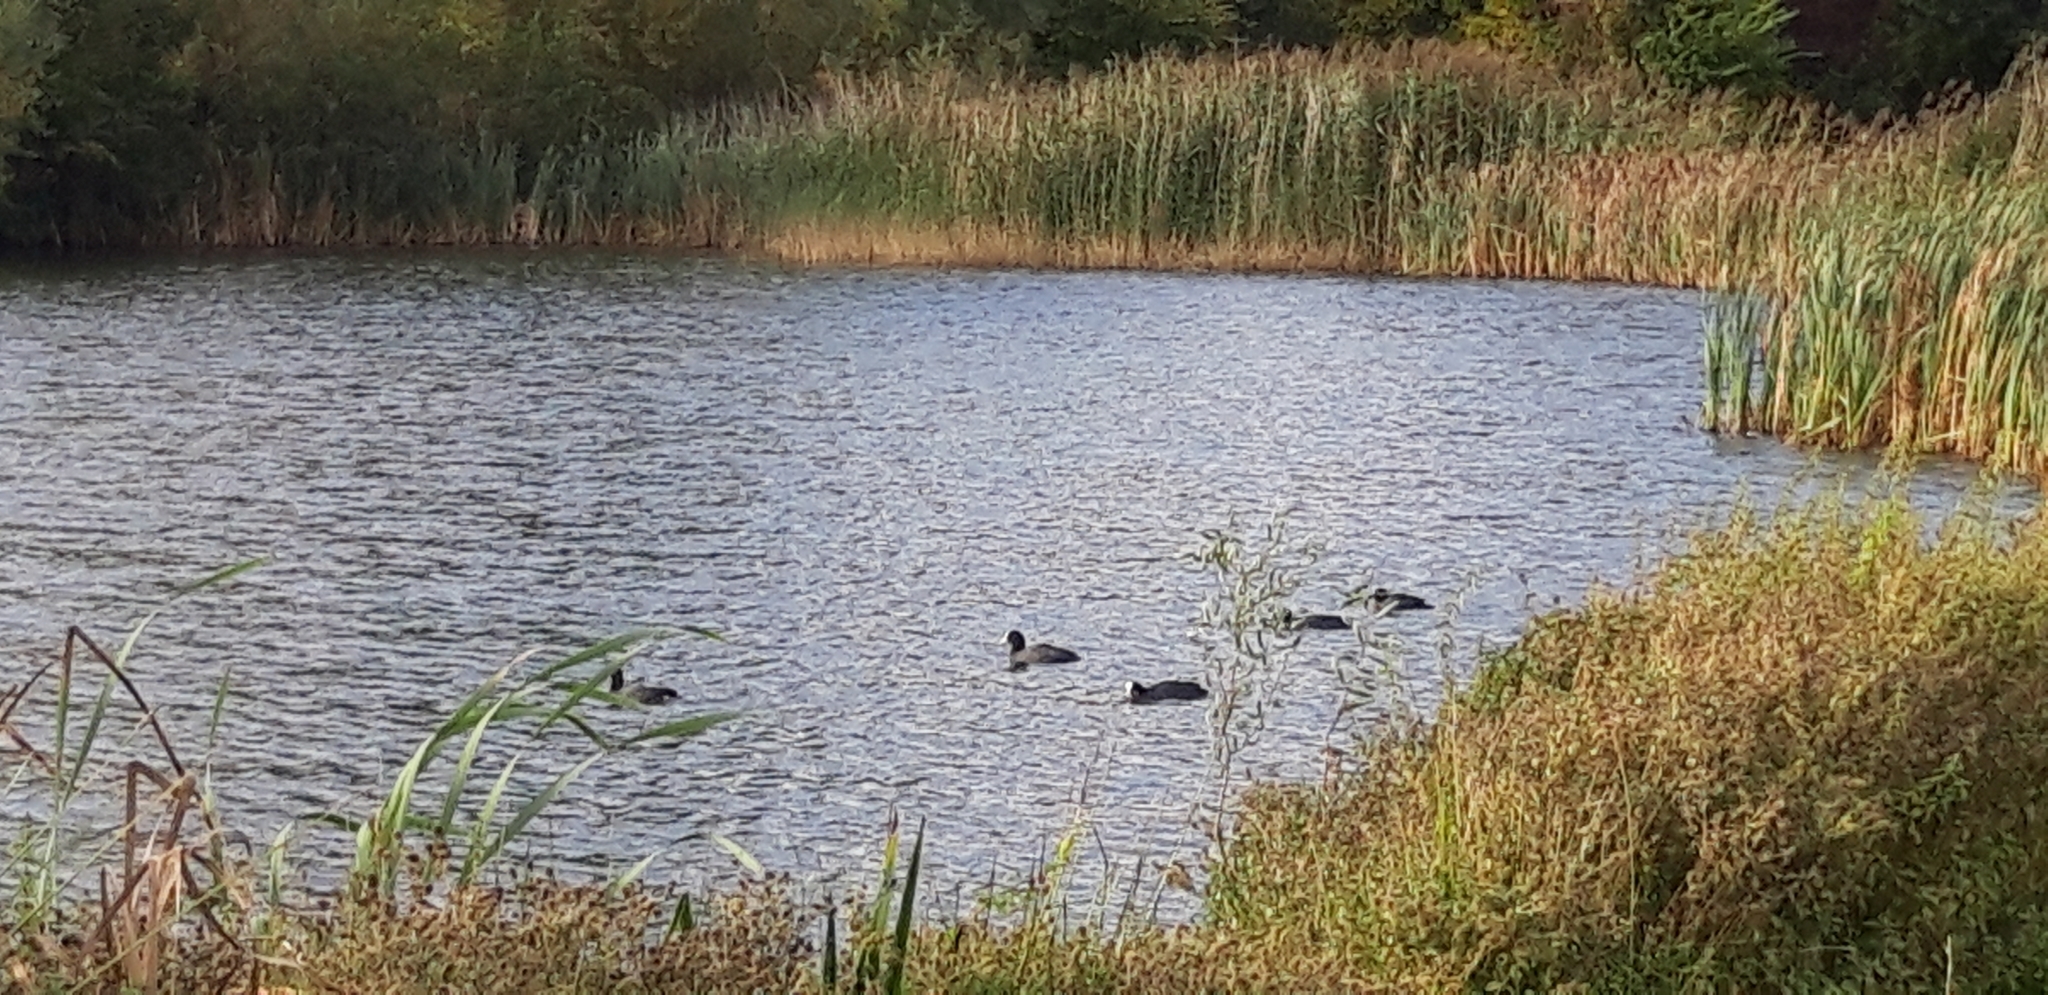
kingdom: Animalia
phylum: Chordata
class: Aves
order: Gruiformes
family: Rallidae
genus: Fulica
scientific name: Fulica atra
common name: Eurasian coot
